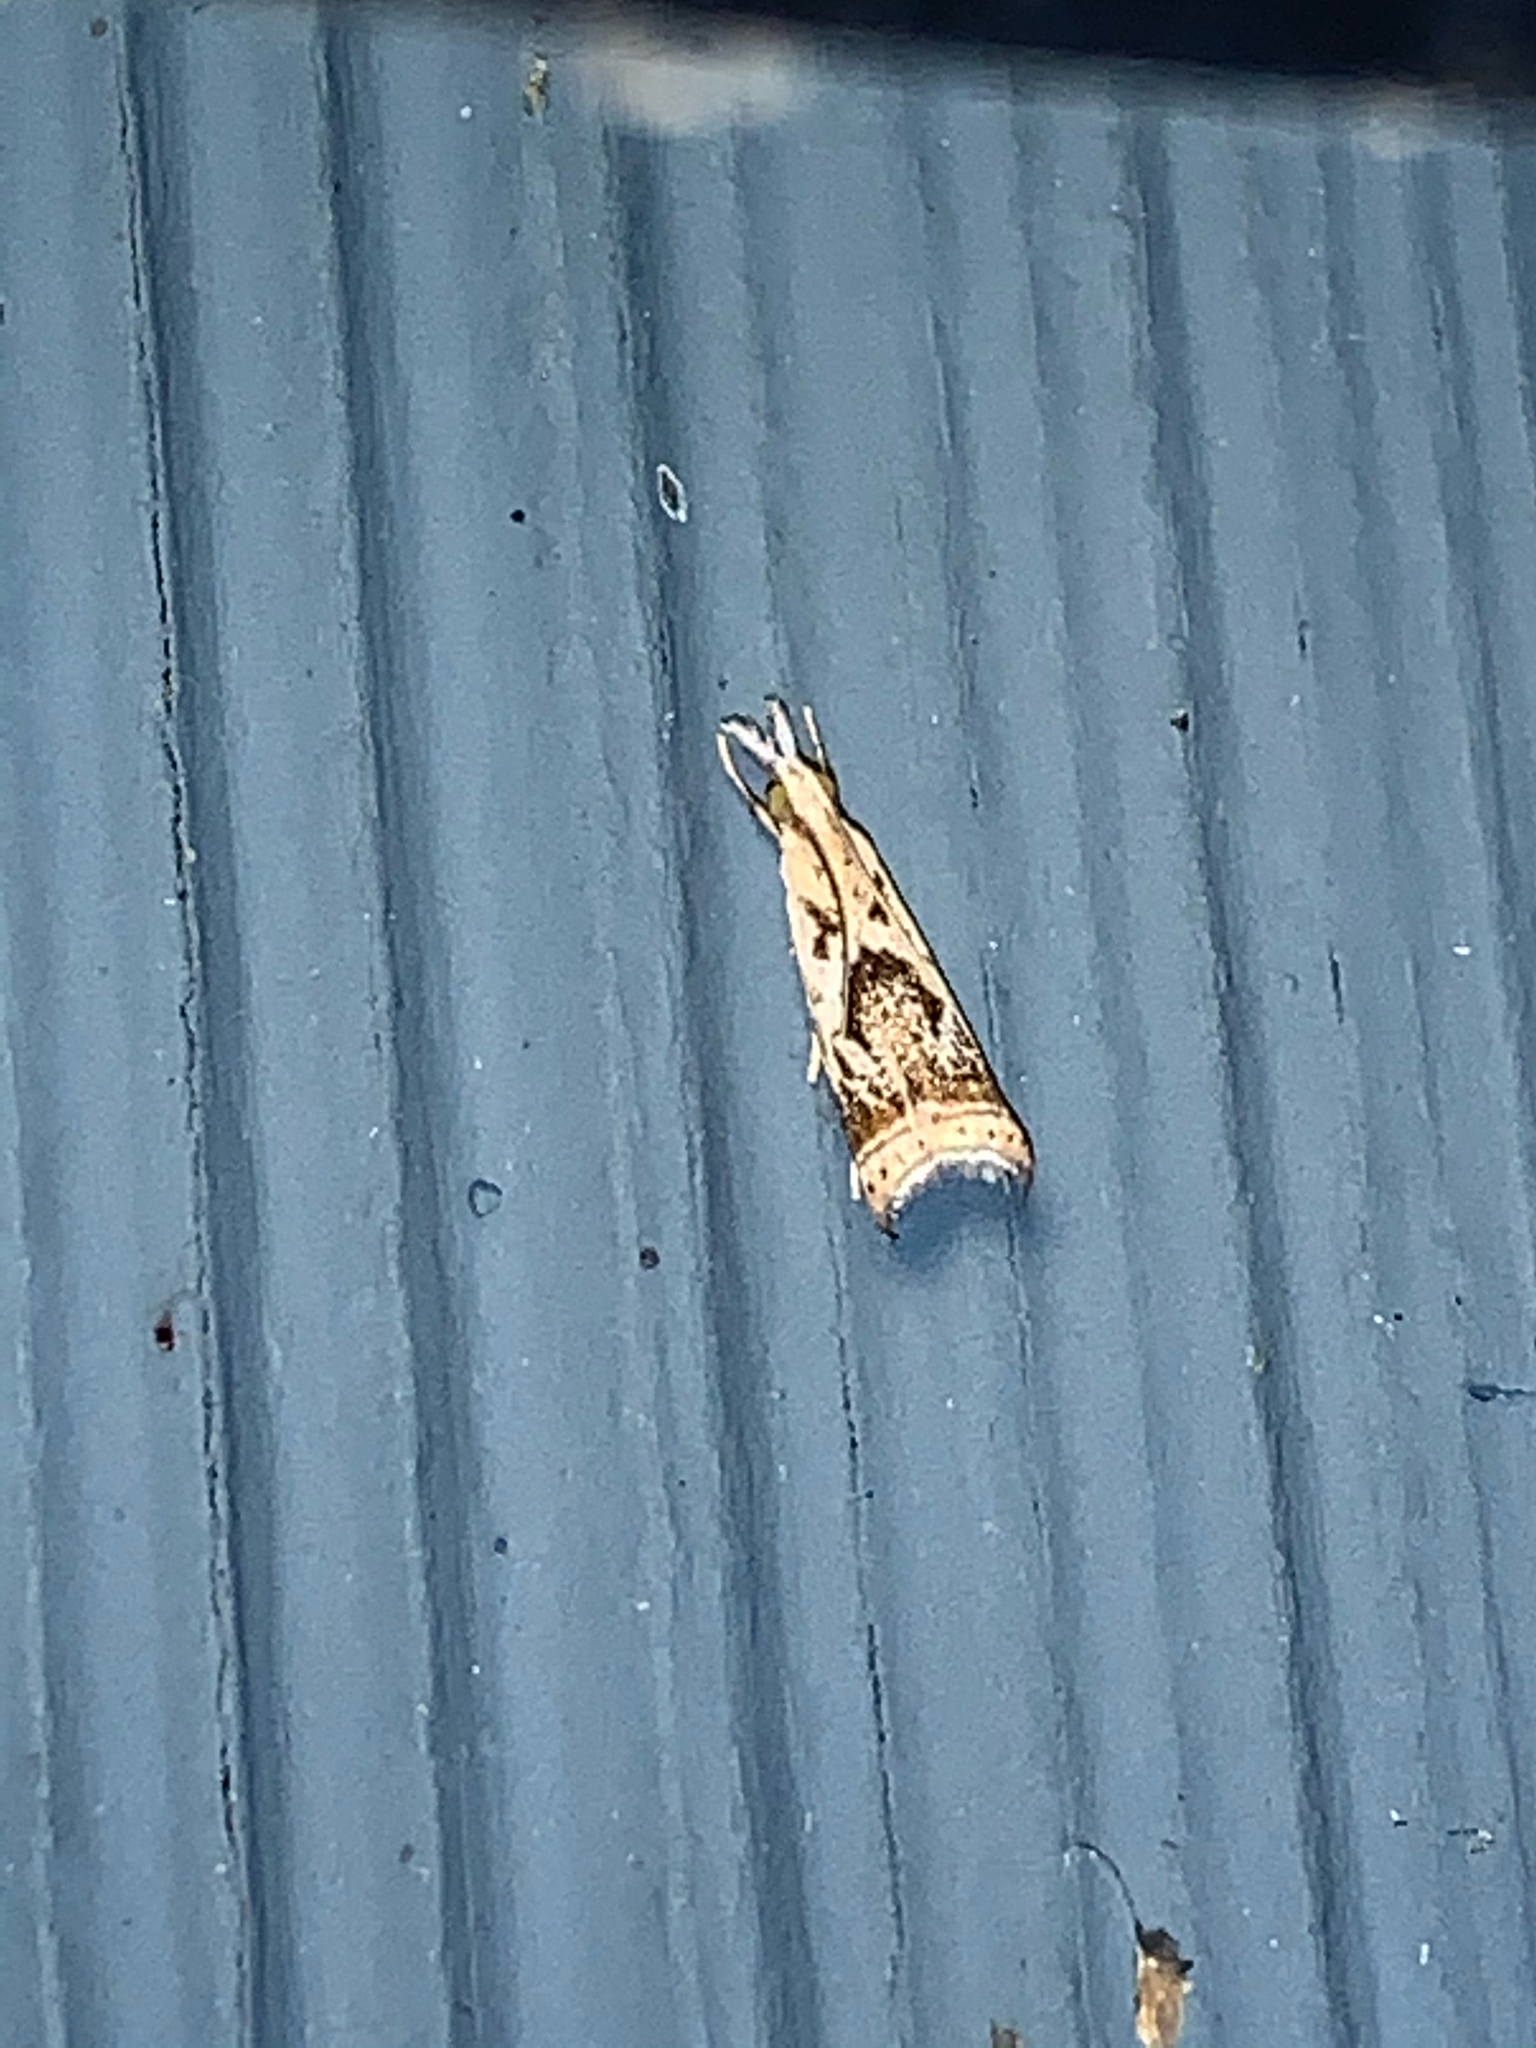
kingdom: Animalia
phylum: Arthropoda
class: Insecta
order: Lepidoptera
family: Crambidae
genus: Microcrambus
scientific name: Microcrambus elegans
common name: Elegant grass-veneer
